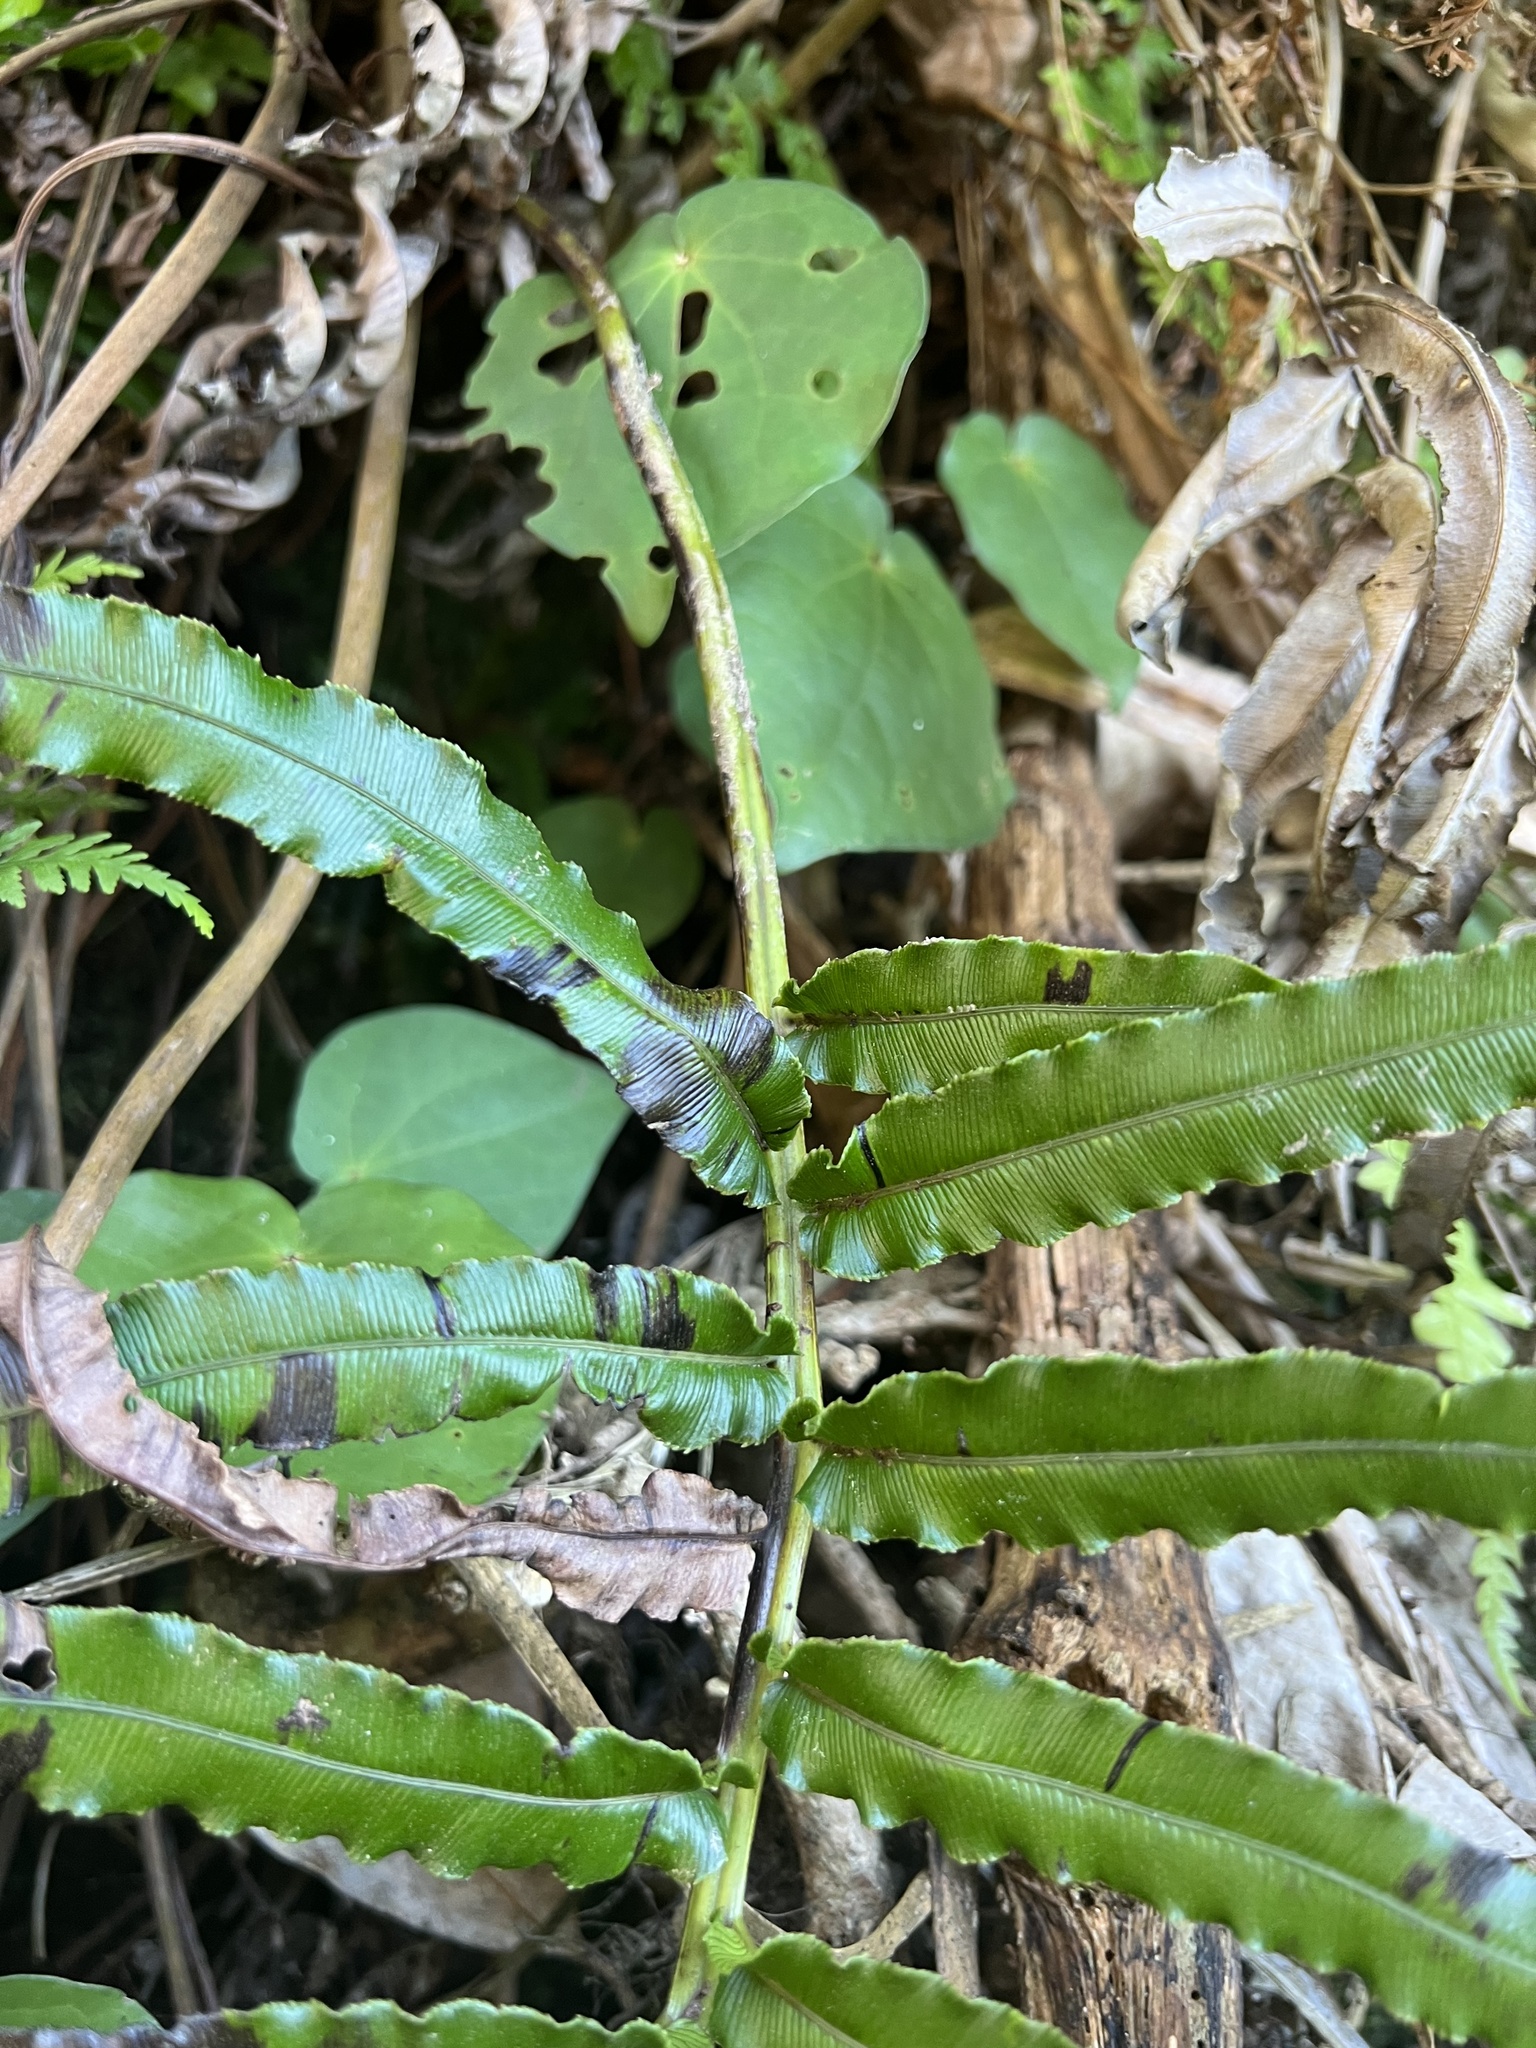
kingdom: Plantae
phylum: Tracheophyta
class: Polypodiopsida
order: Polypodiales
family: Blechnaceae
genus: Parablechnum
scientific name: Parablechnum triangularifolium
